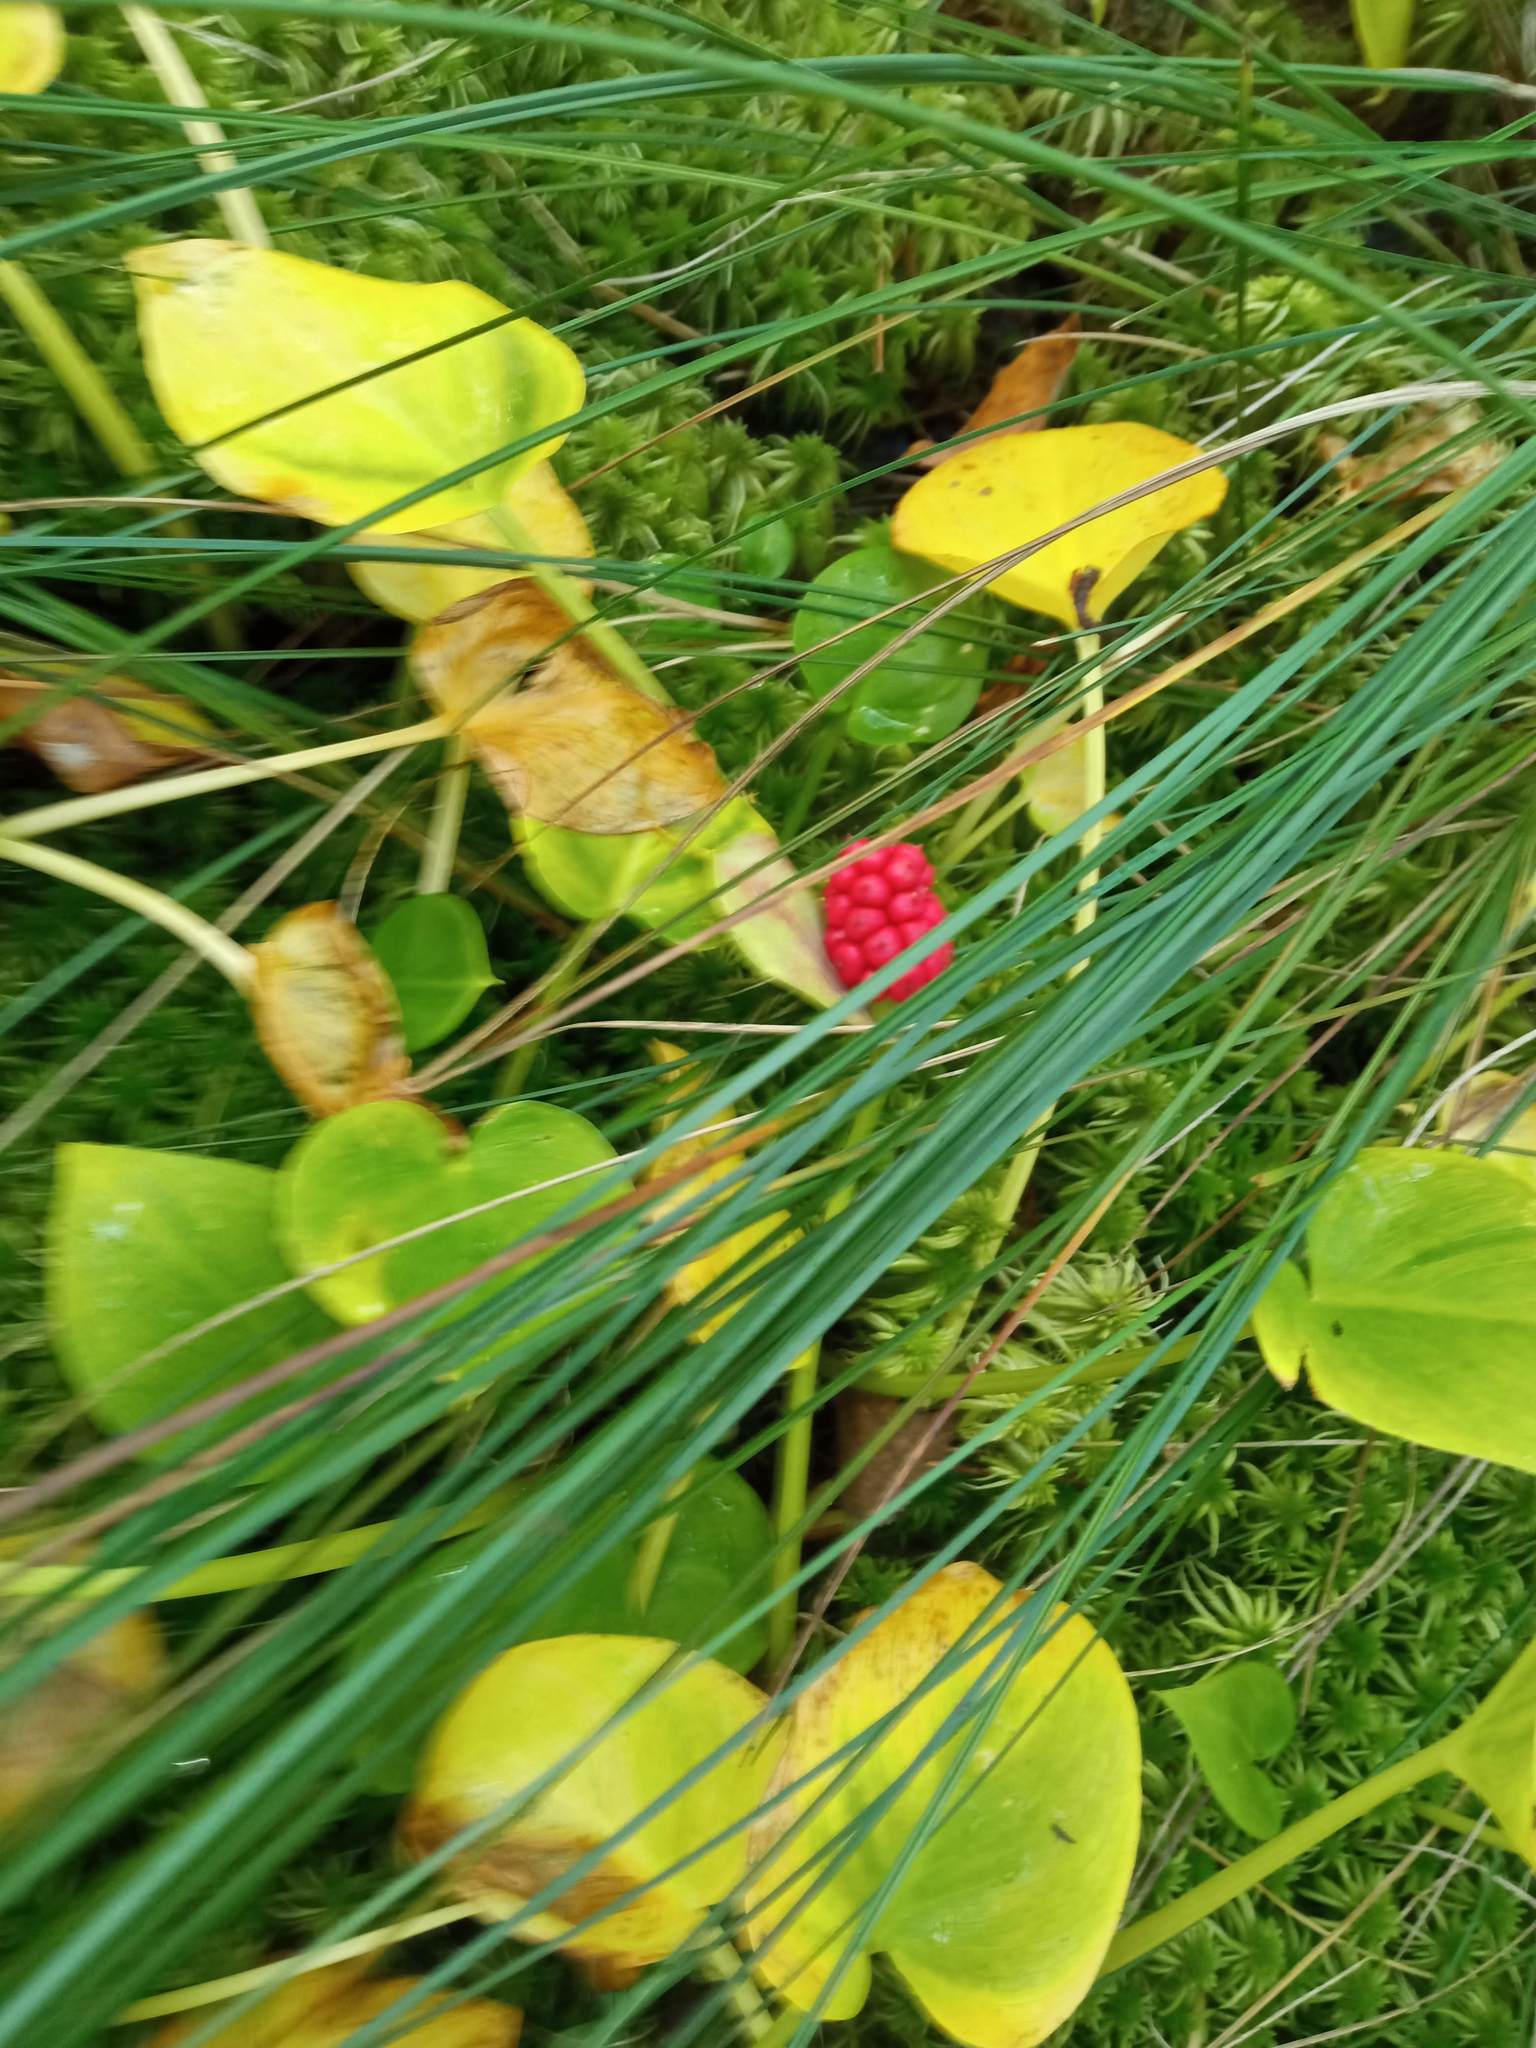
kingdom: Plantae
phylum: Tracheophyta
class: Liliopsida
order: Alismatales
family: Araceae
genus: Calla
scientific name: Calla palustris
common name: Bog arum
